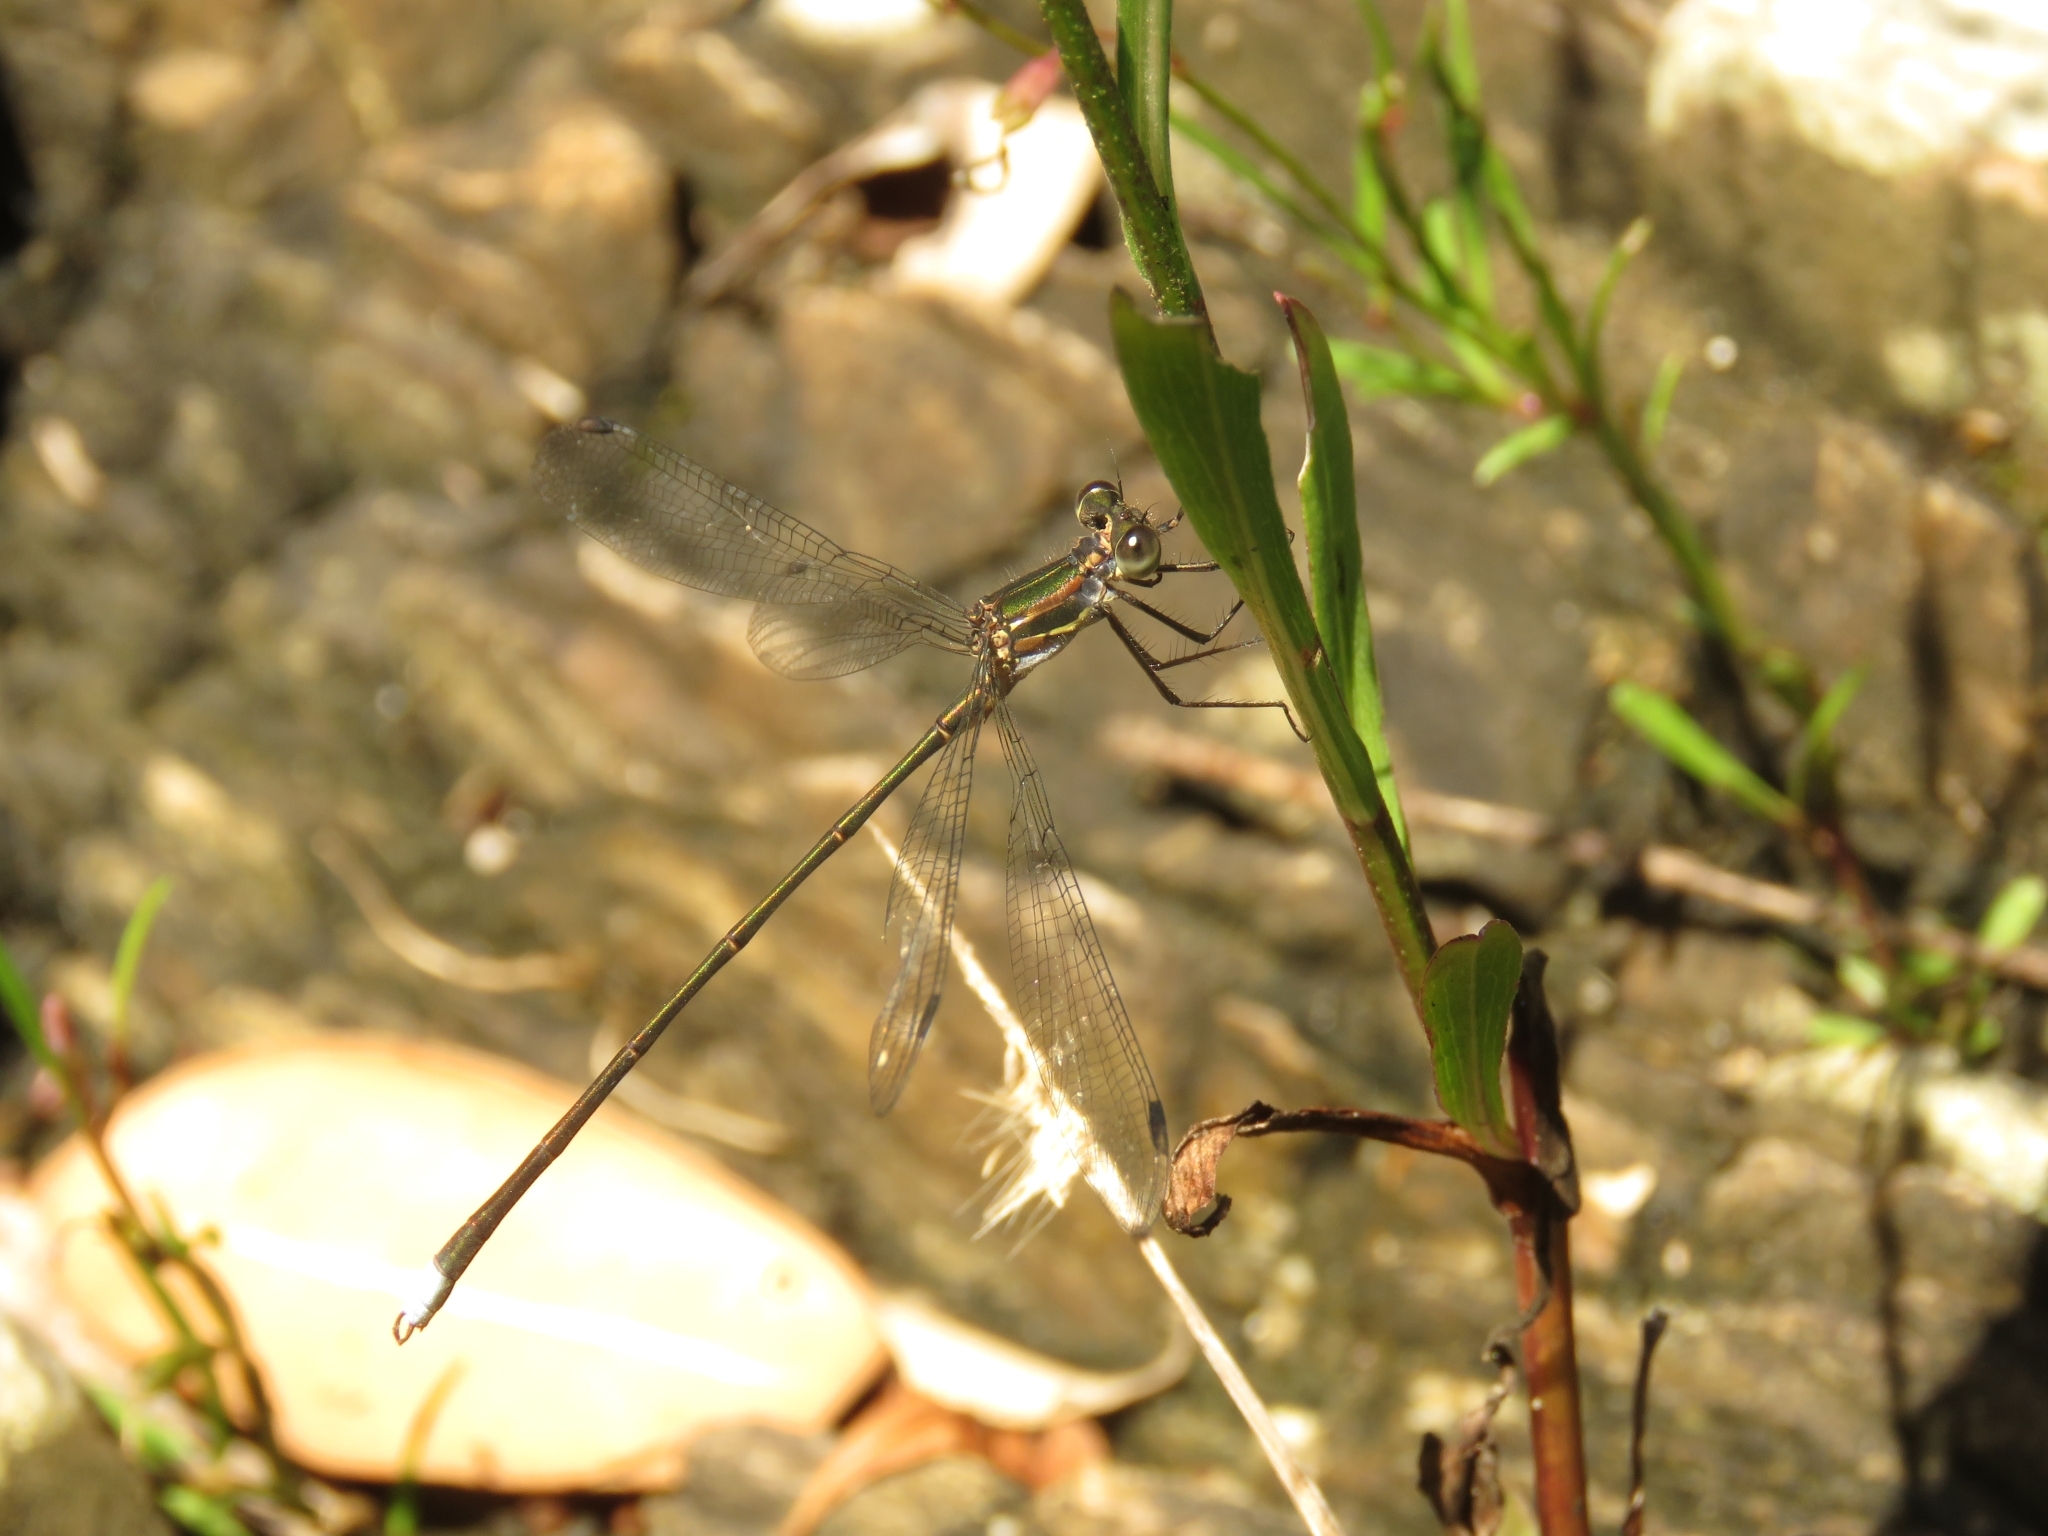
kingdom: Animalia
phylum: Arthropoda
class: Insecta
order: Odonata
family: Synlestidae
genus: Chlorolestes
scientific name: Chlorolestes tessellatus
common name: Forest malachite
